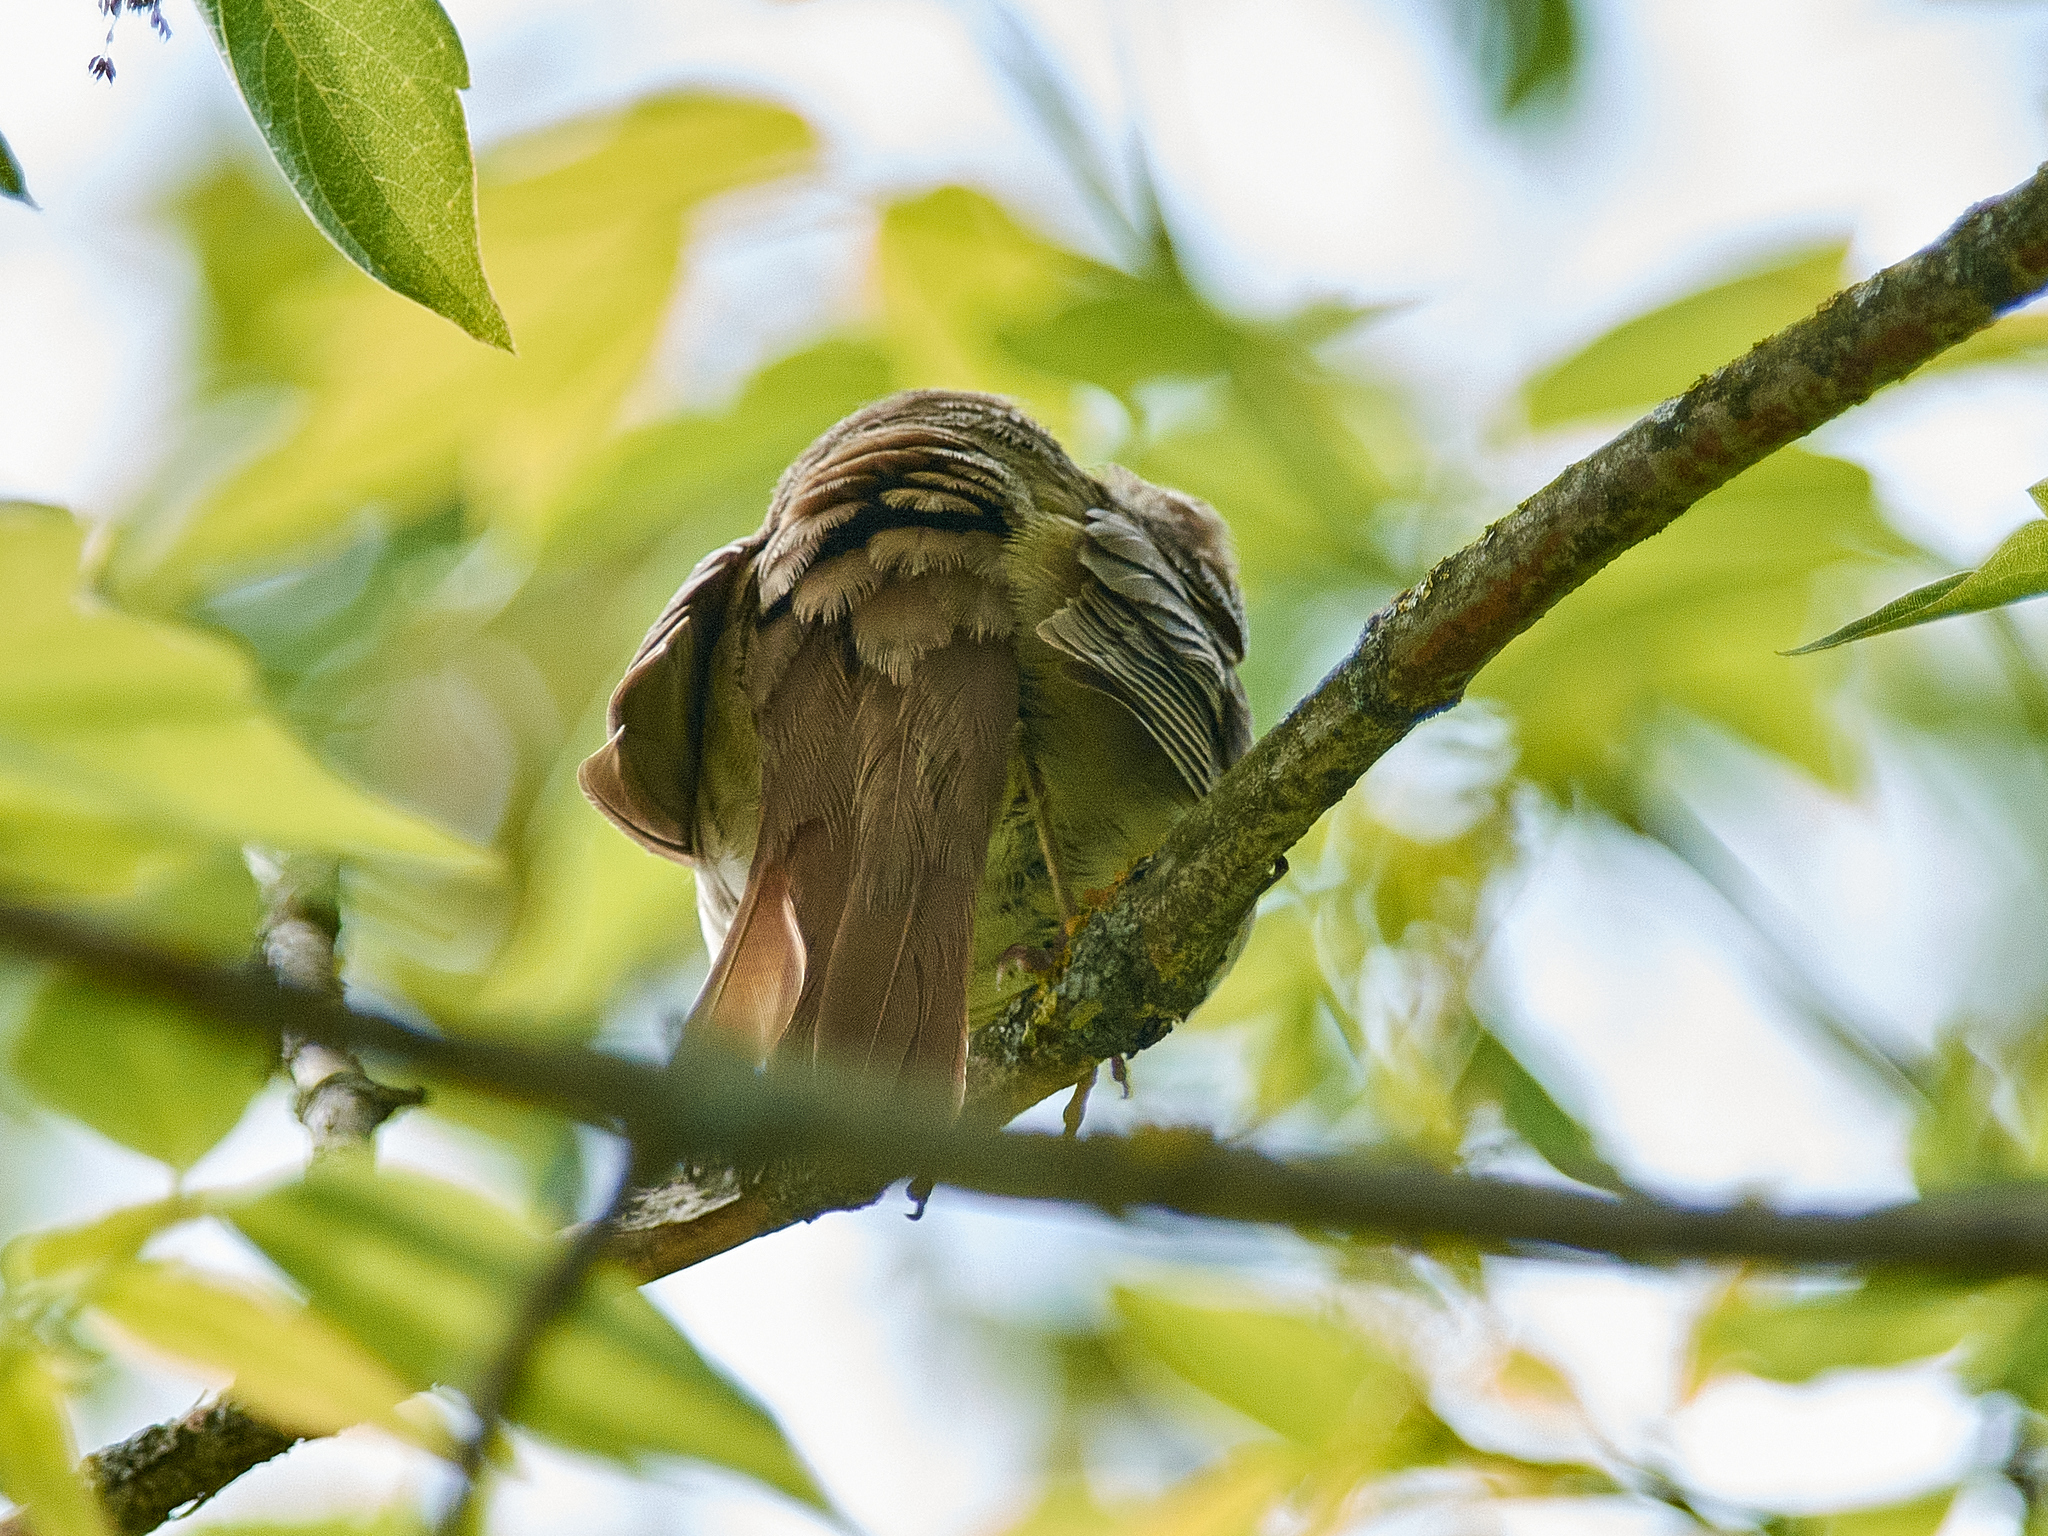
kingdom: Animalia
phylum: Chordata
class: Aves
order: Passeriformes
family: Muscicapidae
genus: Luscinia
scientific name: Luscinia luscinia
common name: Thrush nightingale
